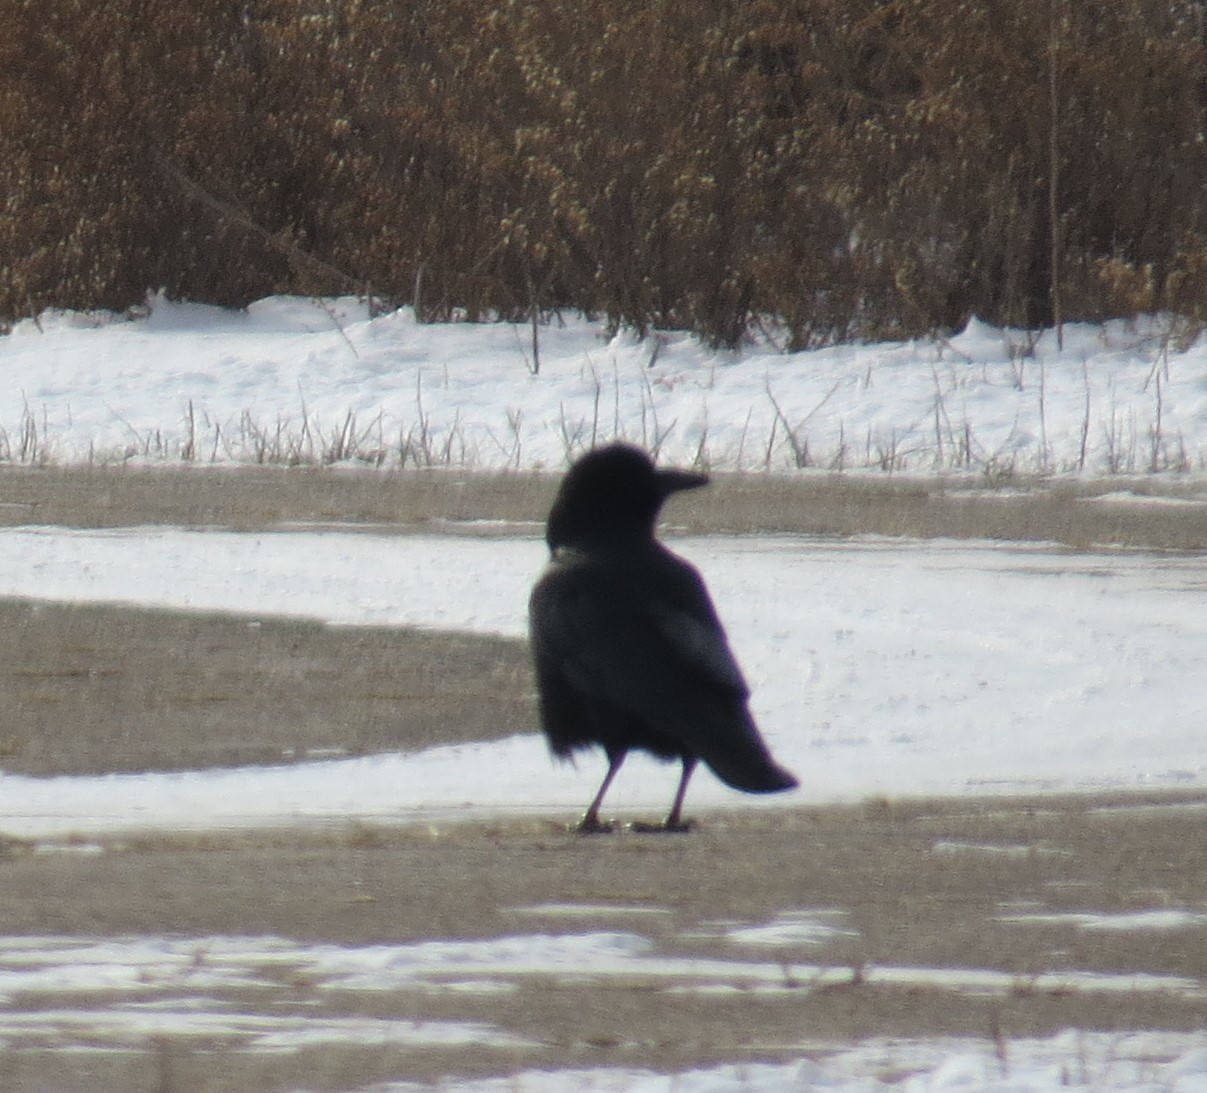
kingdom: Animalia
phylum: Chordata
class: Aves
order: Passeriformes
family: Corvidae
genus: Corvus
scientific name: Corvus brachyrhynchos
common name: American crow
